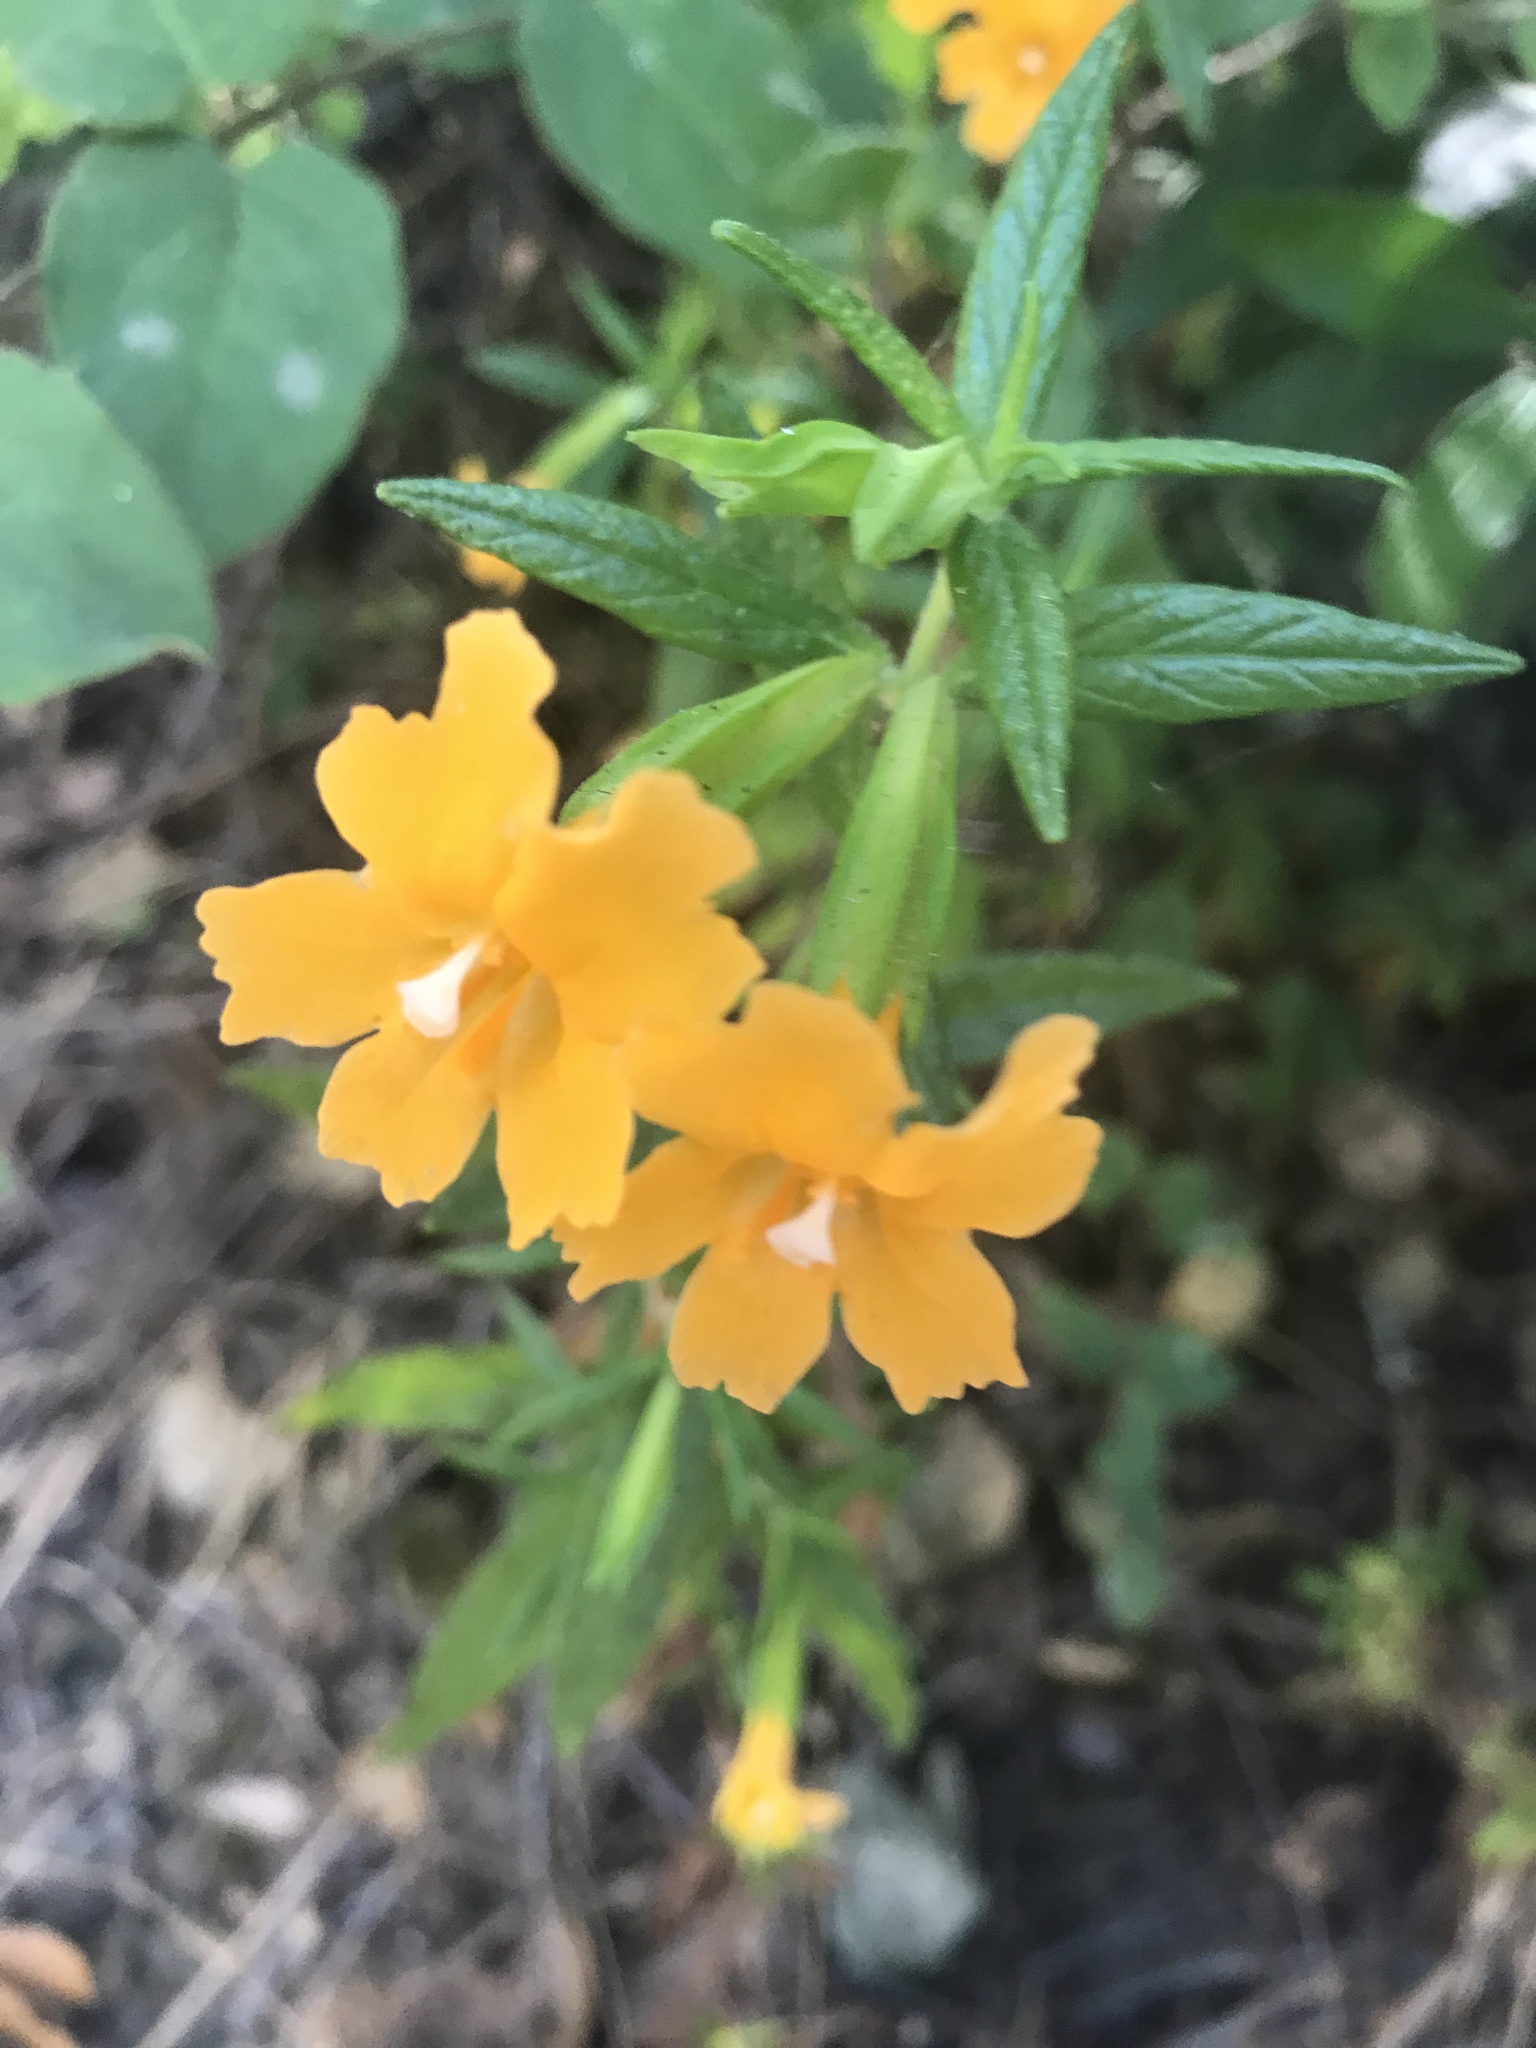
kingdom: Plantae
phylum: Tracheophyta
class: Magnoliopsida
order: Lamiales
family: Phrymaceae
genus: Diplacus
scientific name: Diplacus aurantiacus
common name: Bush monkey-flower
